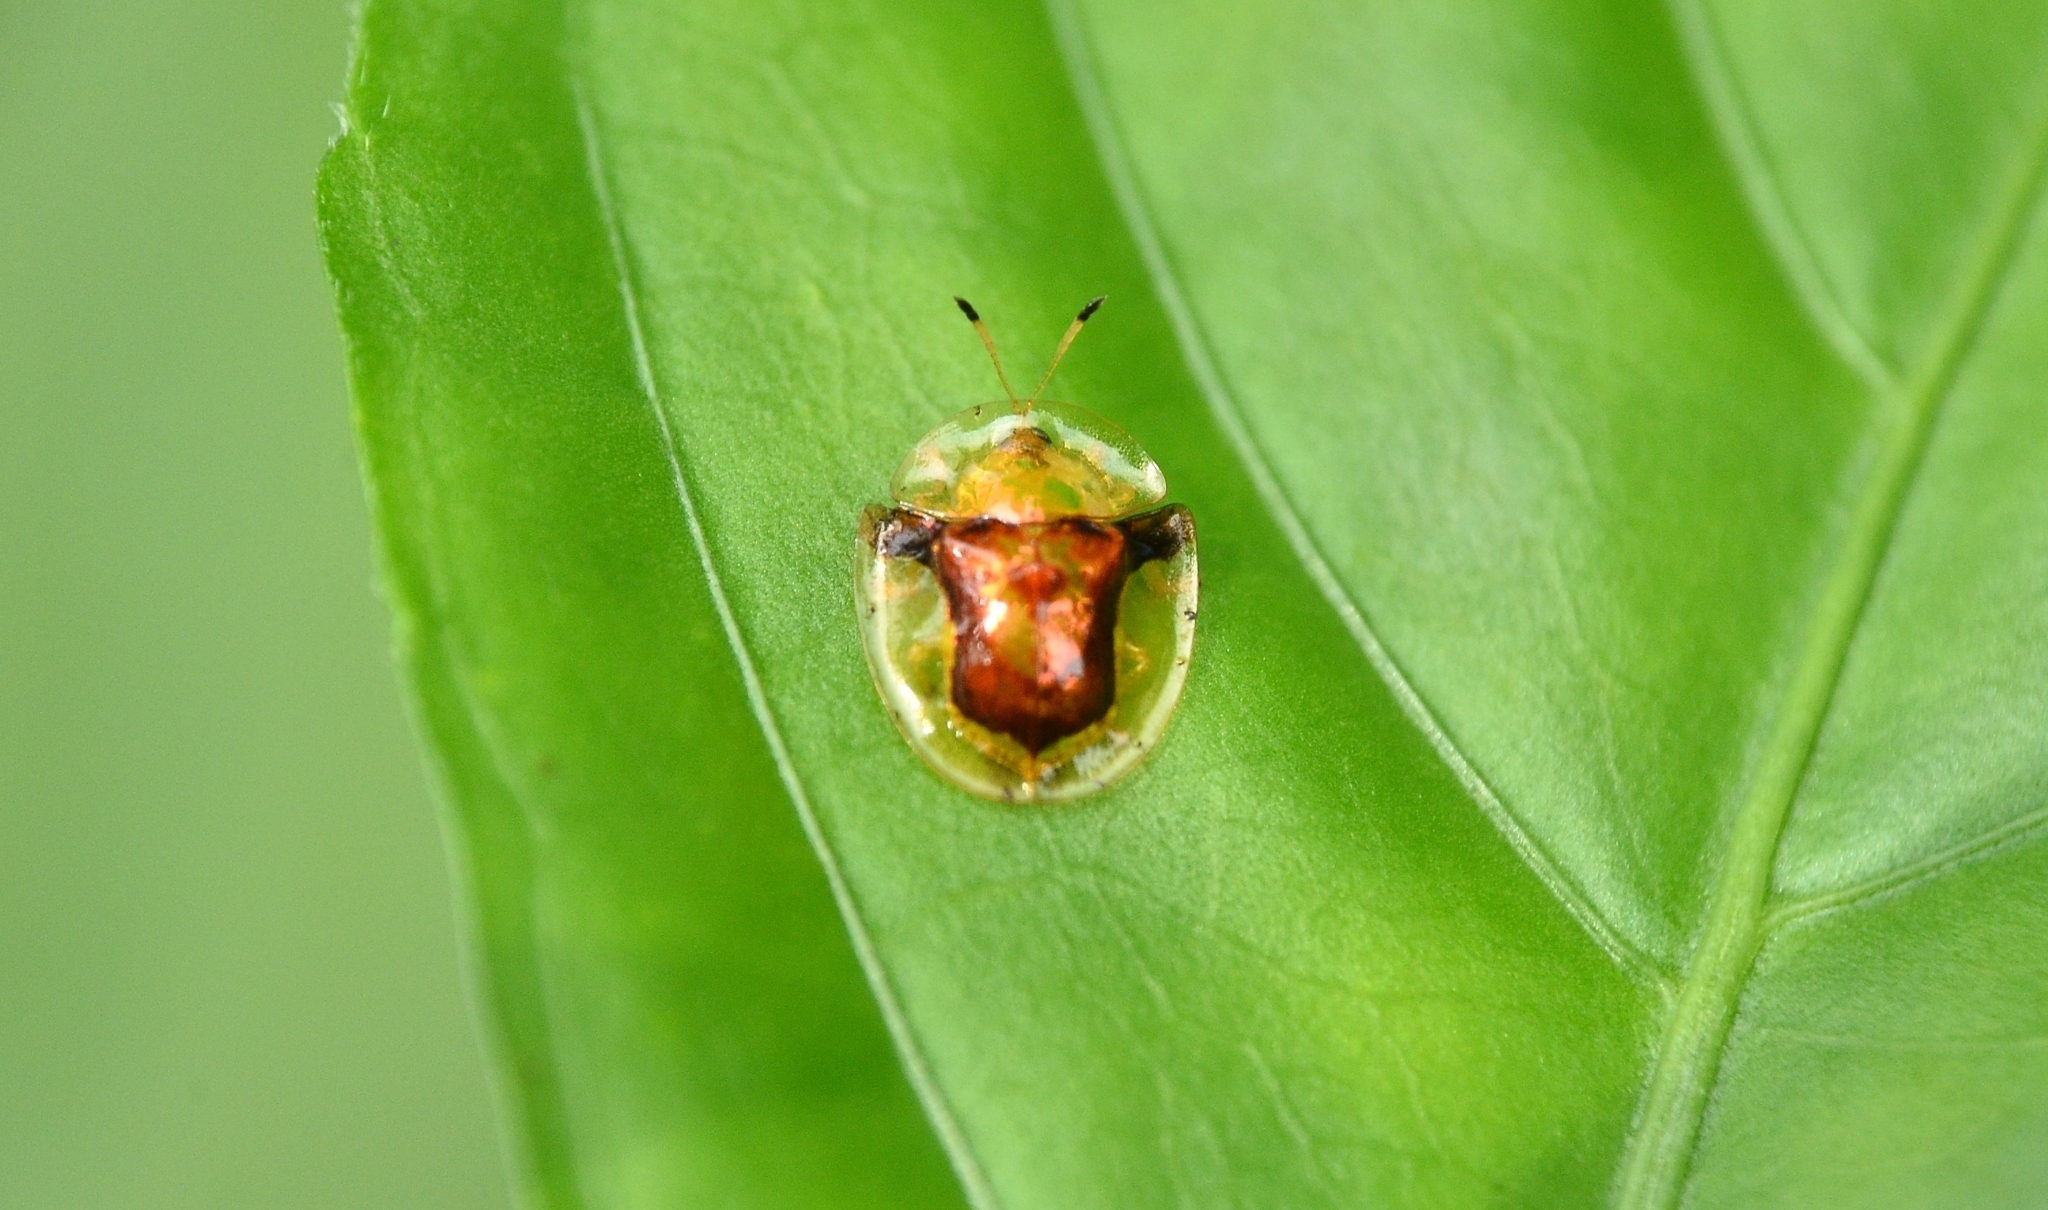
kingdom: Animalia
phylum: Arthropoda
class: Insecta
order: Coleoptera
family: Chrysomelidae
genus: Aspidimorpha
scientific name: Aspidimorpha furcata
